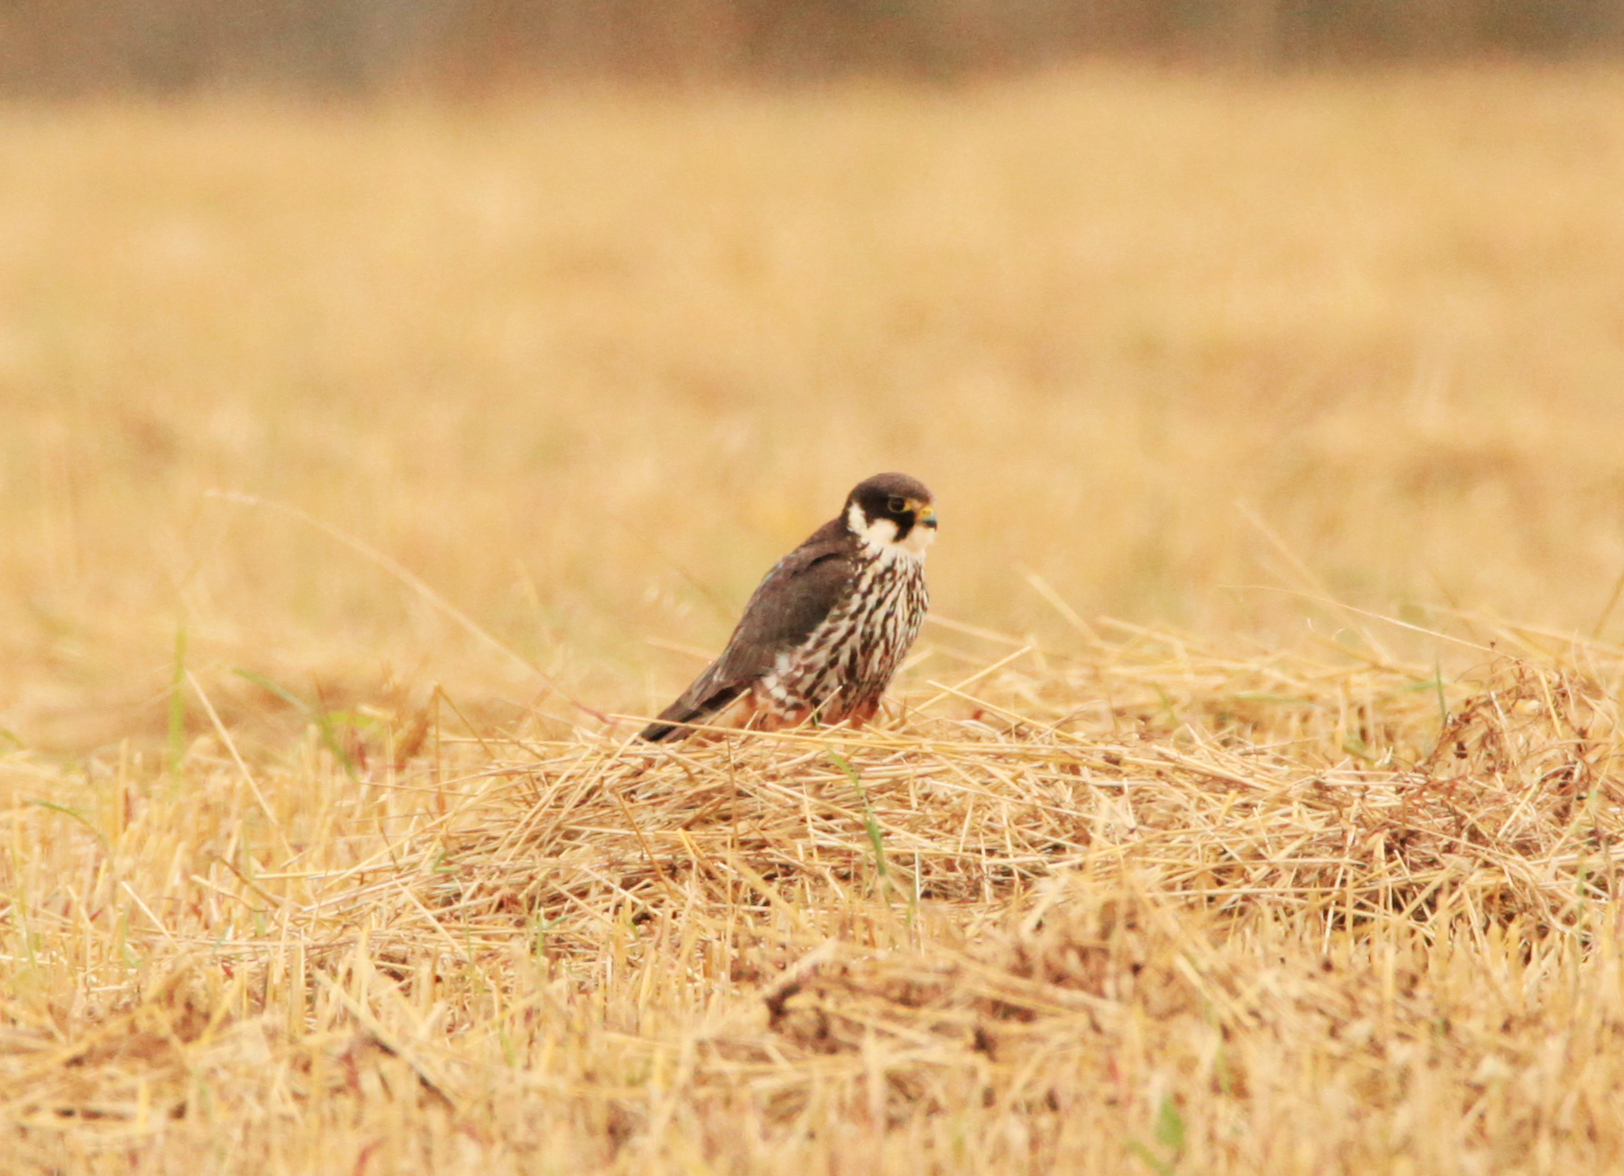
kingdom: Animalia
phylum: Chordata
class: Aves
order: Falconiformes
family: Falconidae
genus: Falco
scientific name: Falco subbuteo
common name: Eurasian hobby
